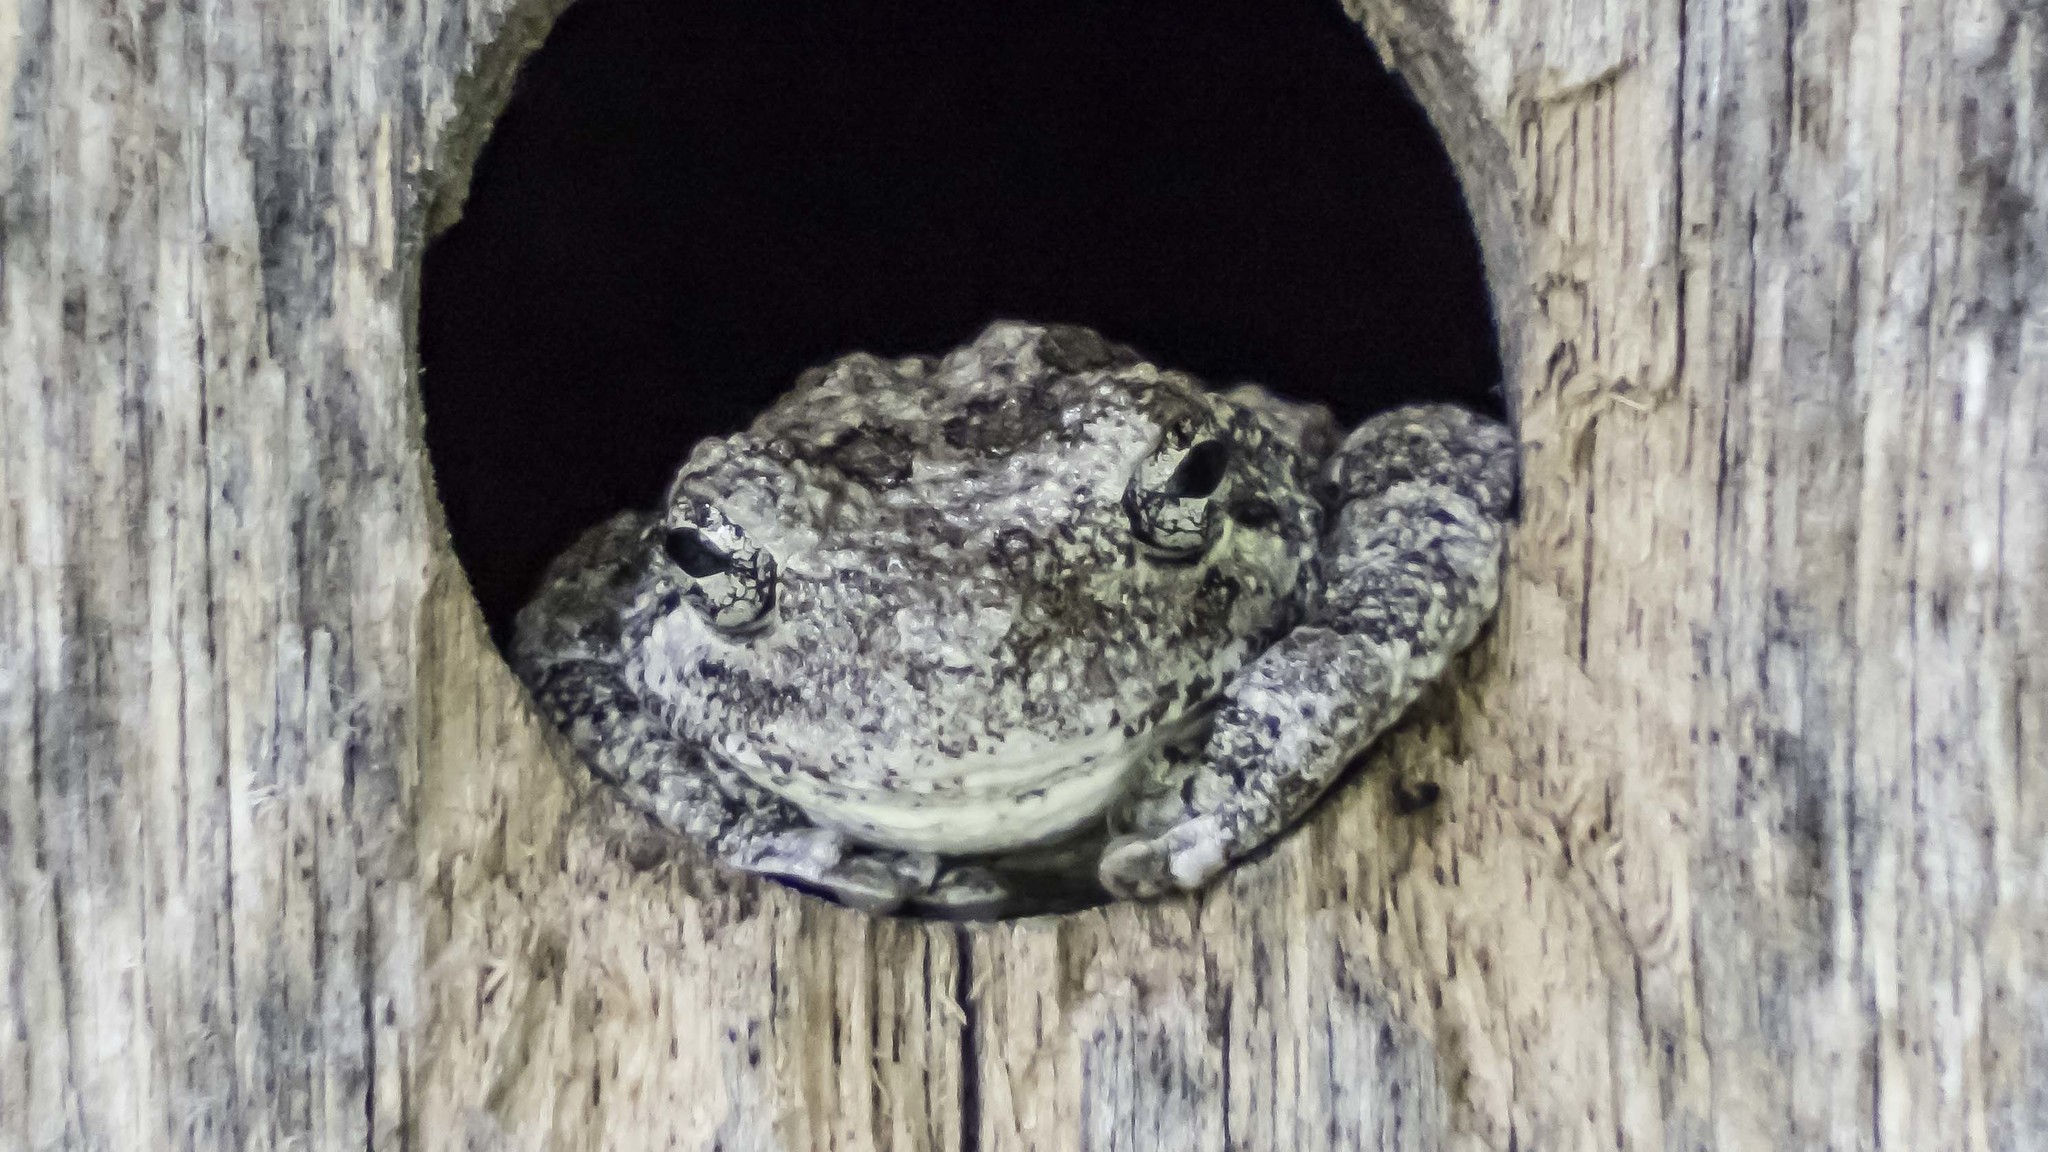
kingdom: Animalia
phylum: Chordata
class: Amphibia
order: Anura
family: Hylidae
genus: Dryophytes
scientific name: Dryophytes chrysoscelis
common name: Cope's gray treefrog
